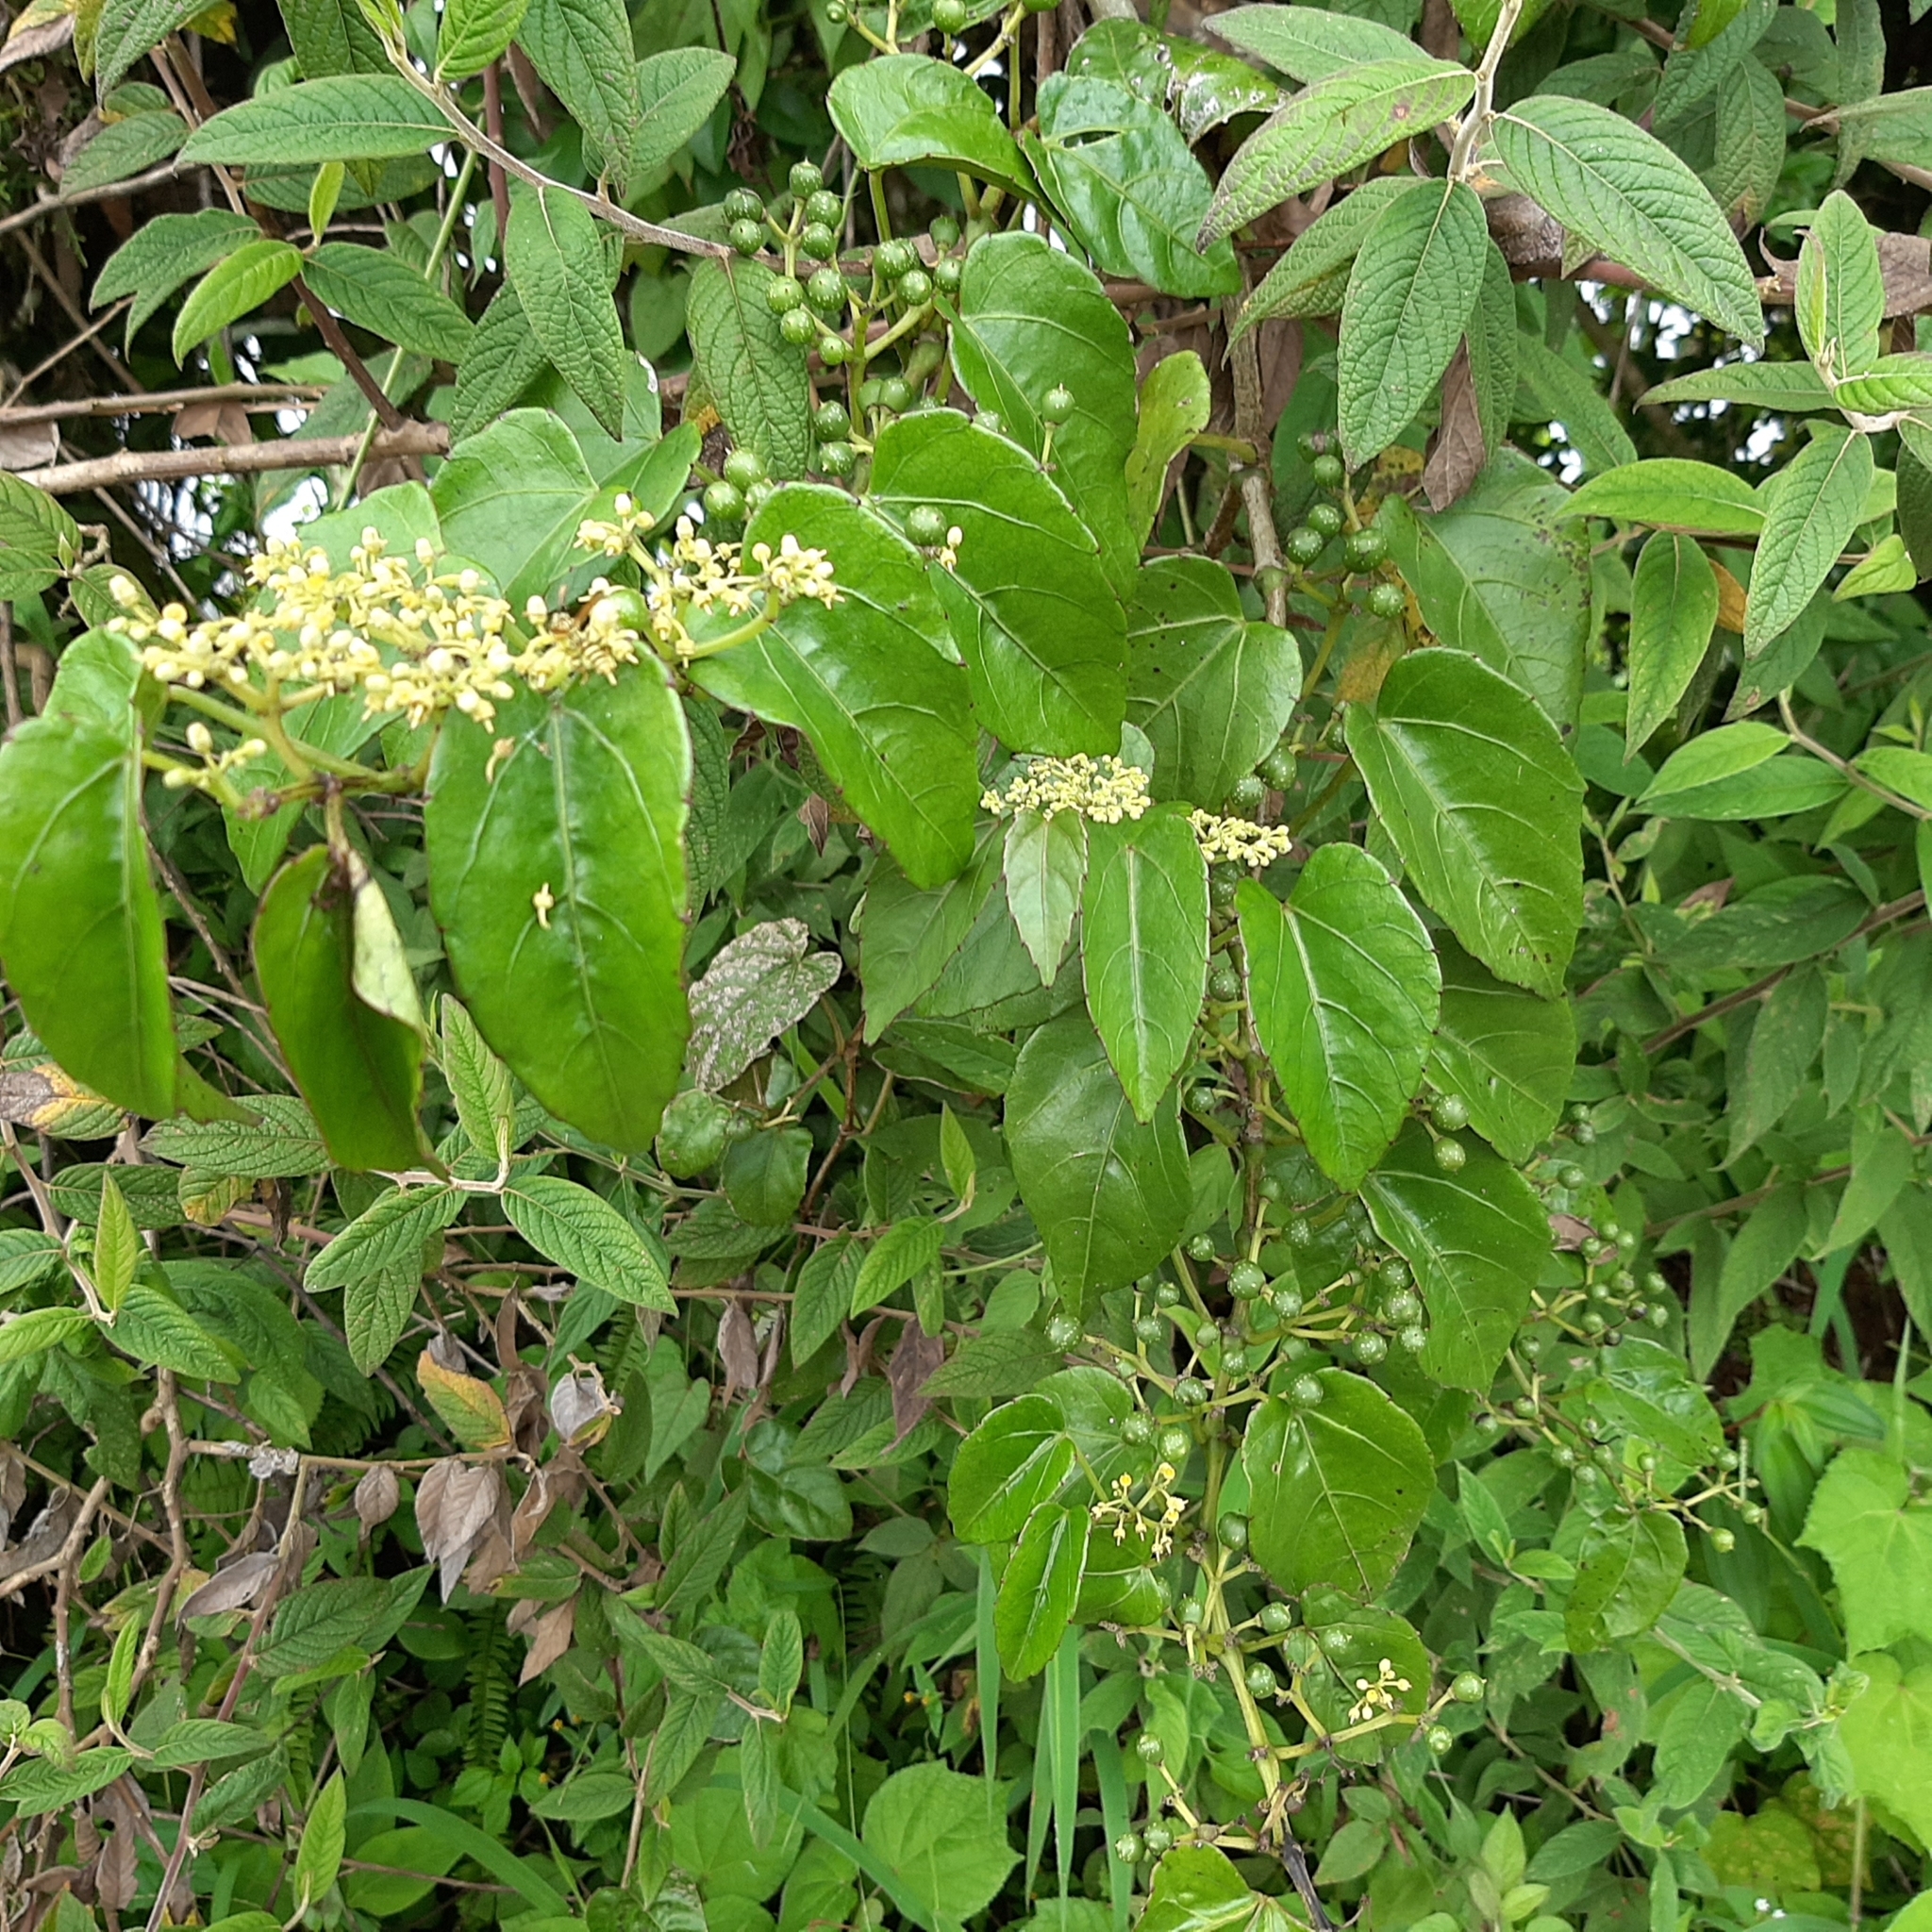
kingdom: Plantae
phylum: Tracheophyta
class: Magnoliopsida
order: Vitales
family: Vitaceae
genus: Cissus
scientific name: Cissus verticillata
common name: Princess vine
